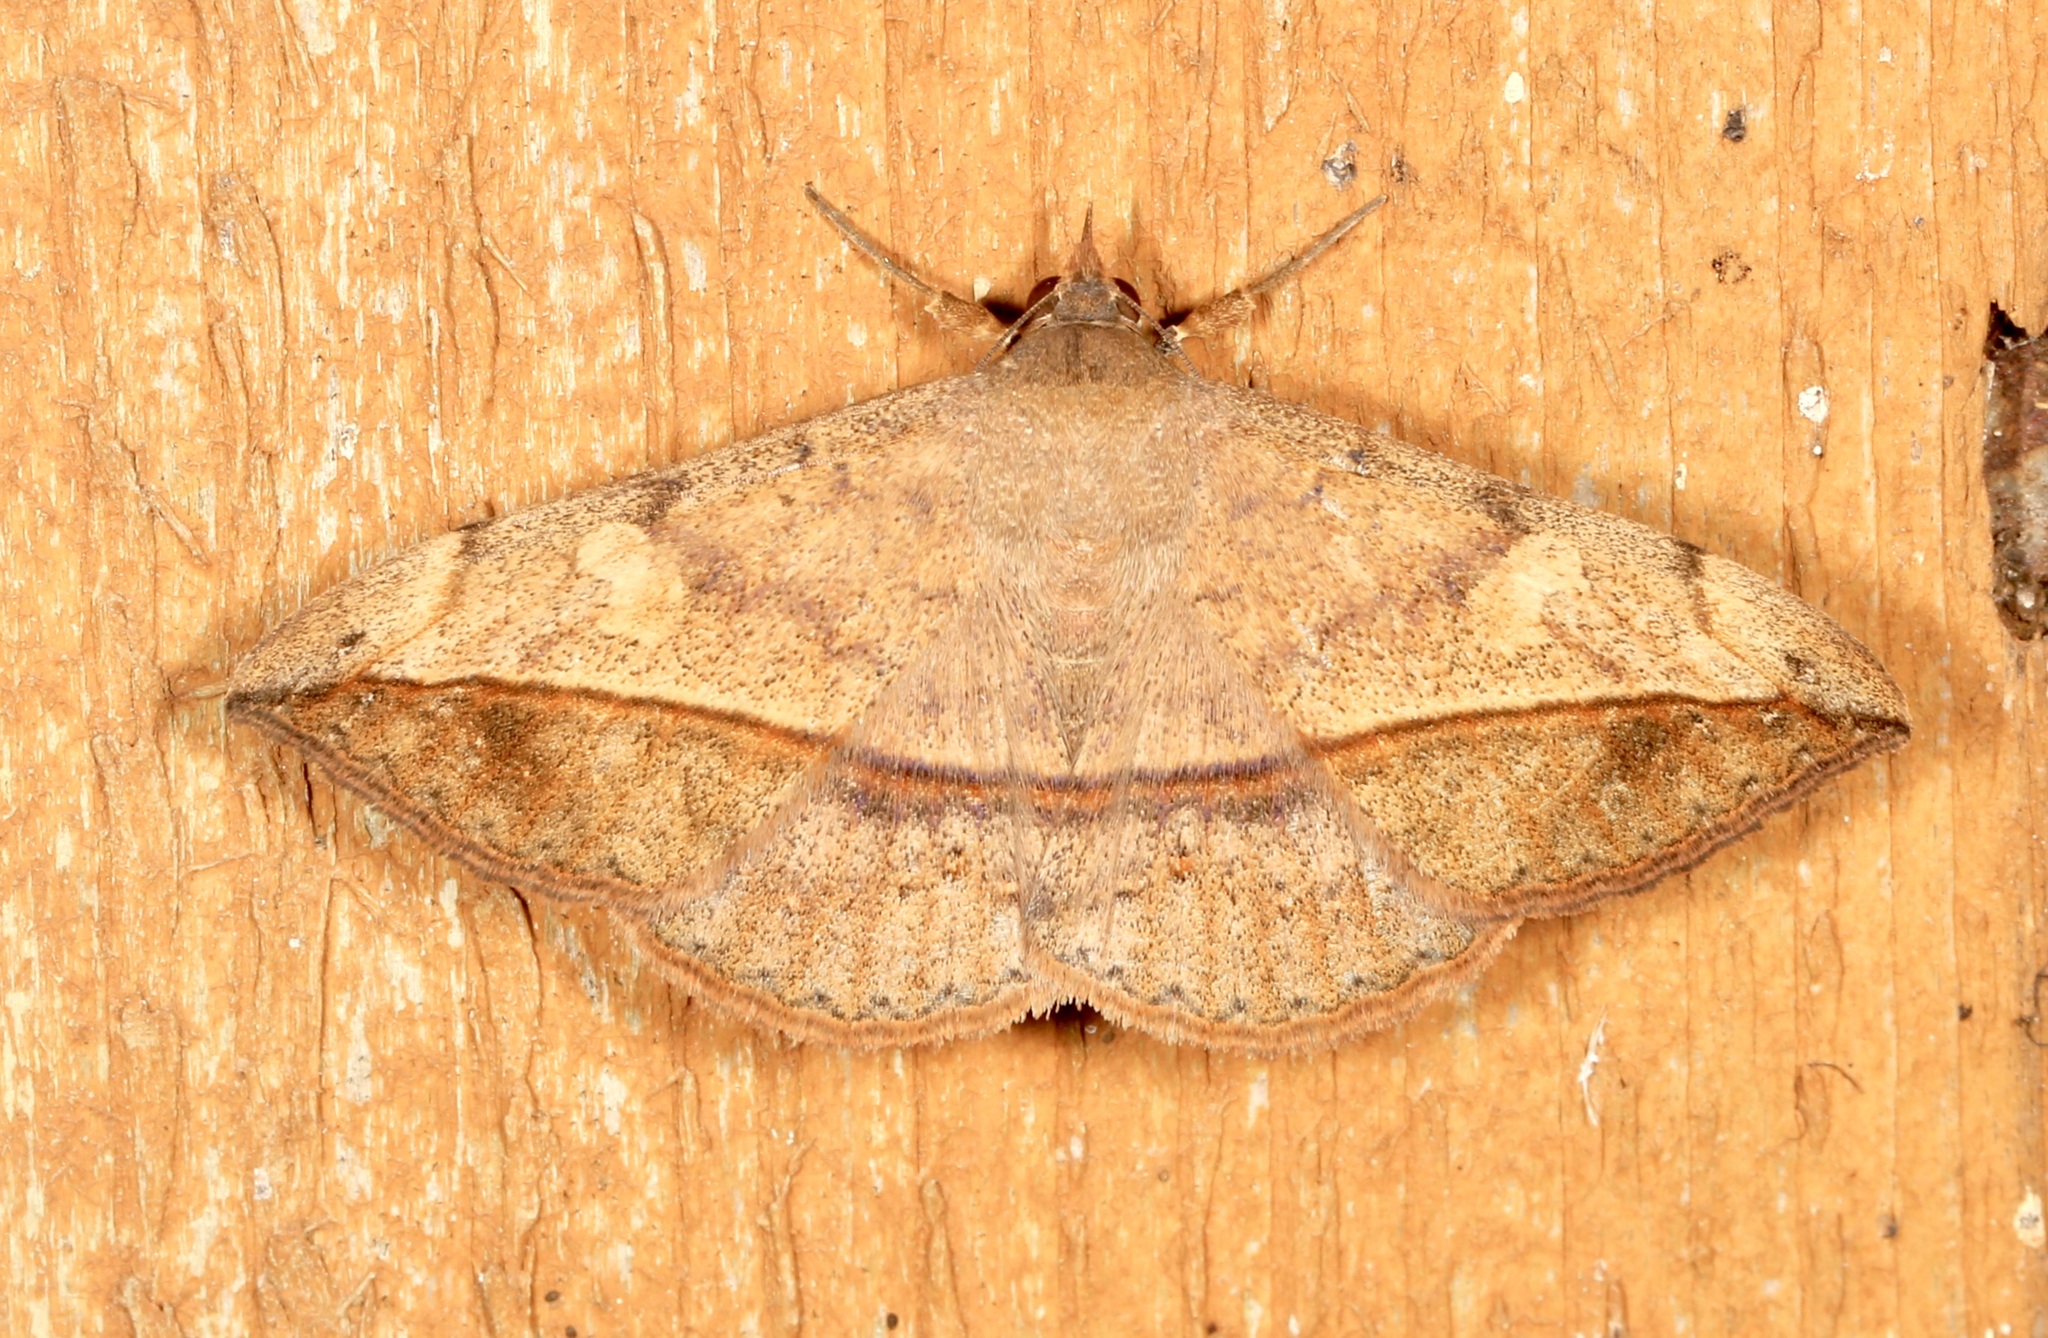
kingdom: Animalia
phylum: Arthropoda
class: Insecta
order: Lepidoptera
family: Erebidae
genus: Anticarsia
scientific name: Anticarsia gemmatalis
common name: Cutworm moth
